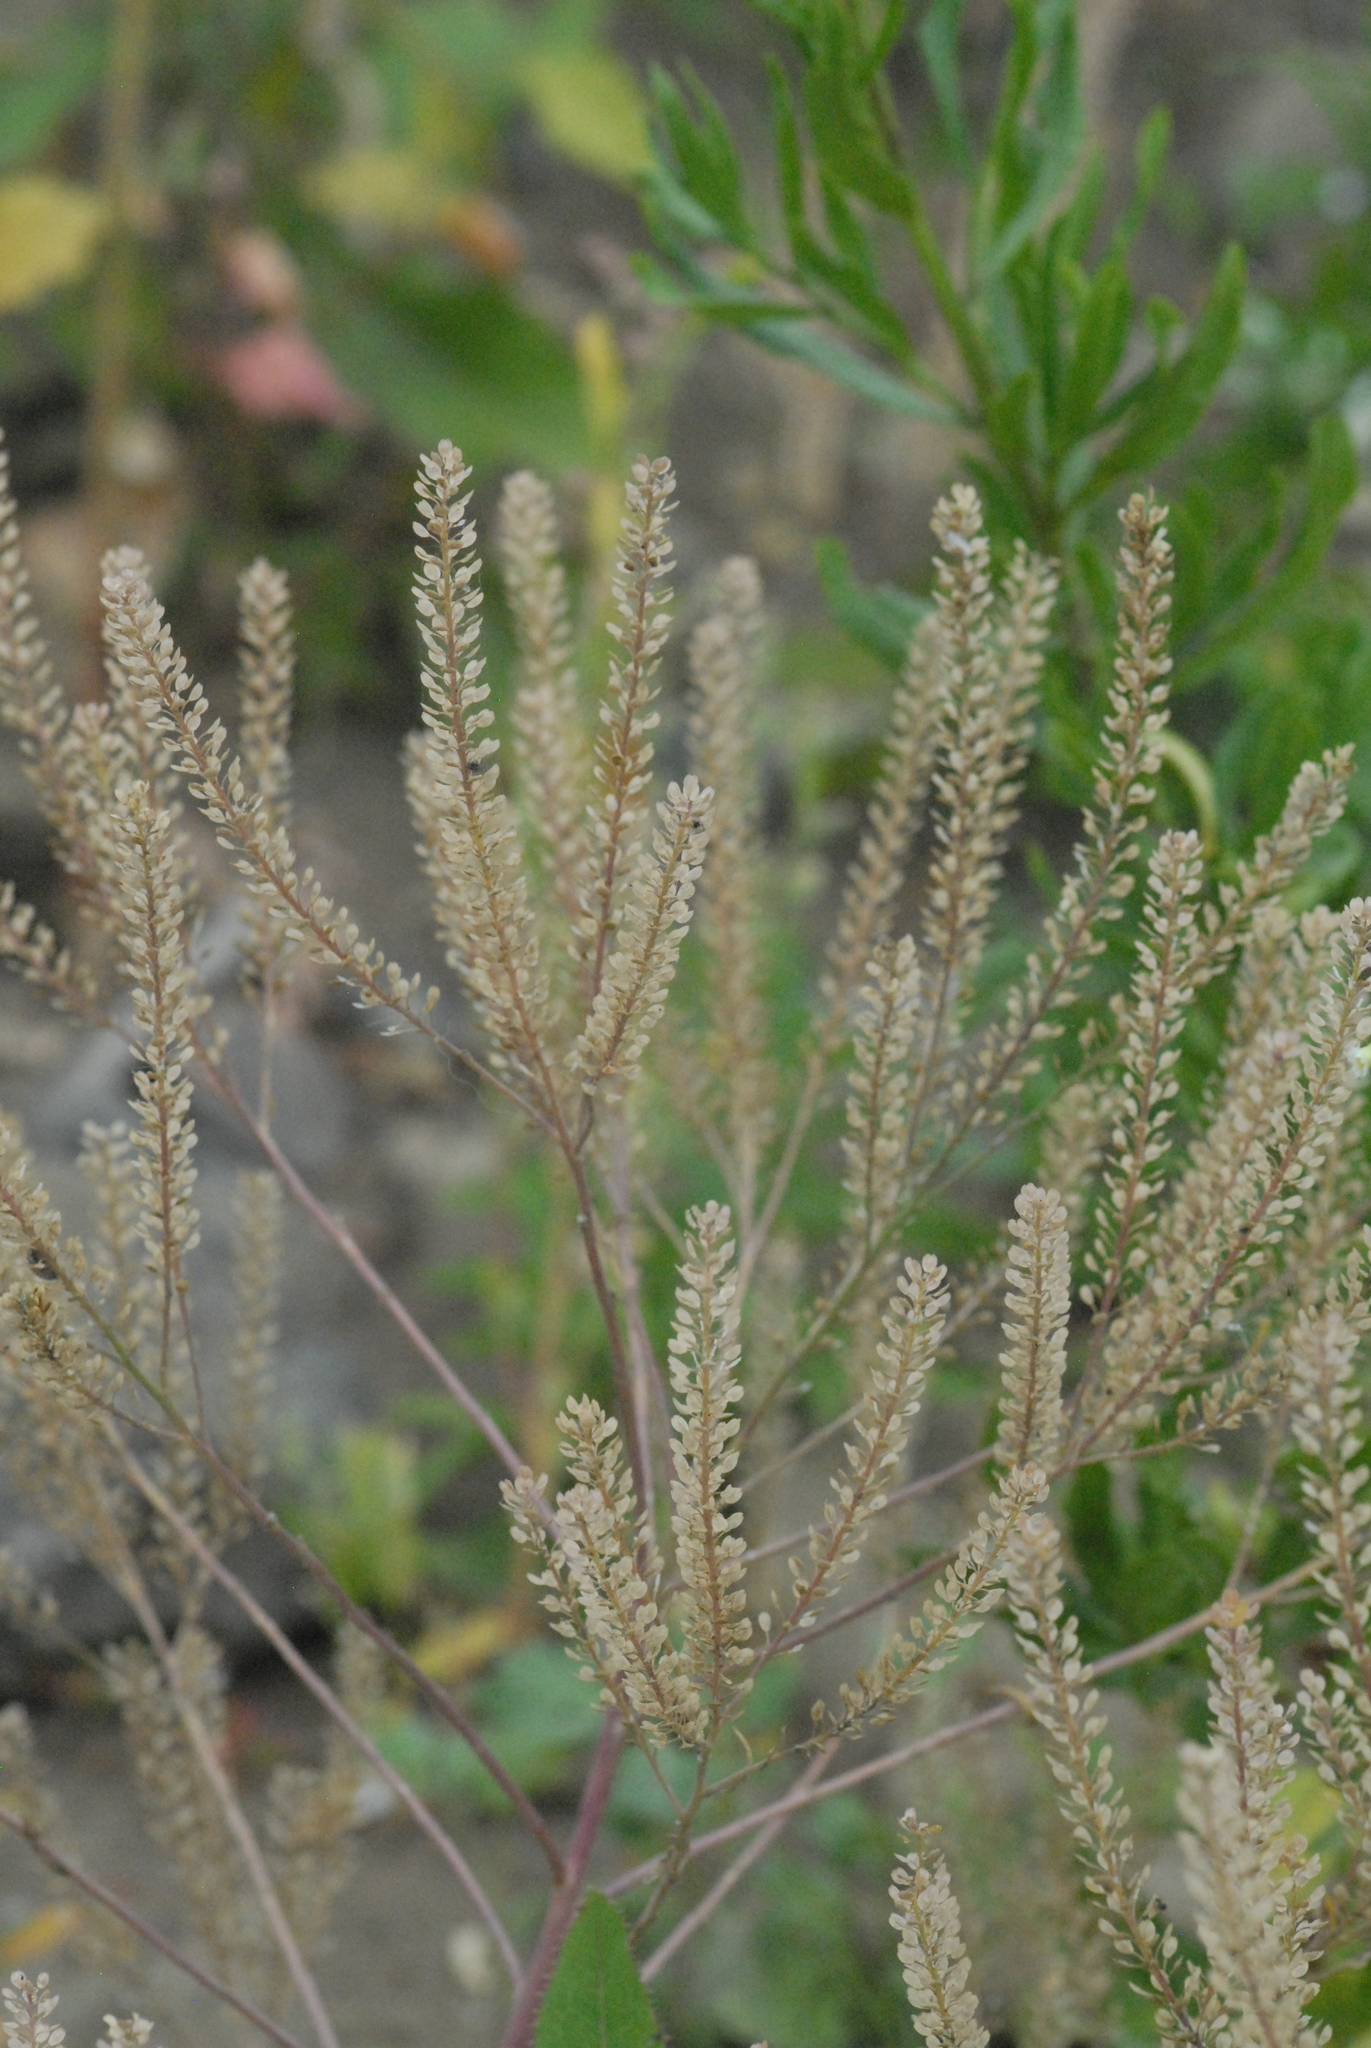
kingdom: Plantae
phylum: Tracheophyta
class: Magnoliopsida
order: Brassicales
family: Brassicaceae
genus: Lepidium
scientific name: Lepidium densiflorum
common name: Miner's pepperwort
